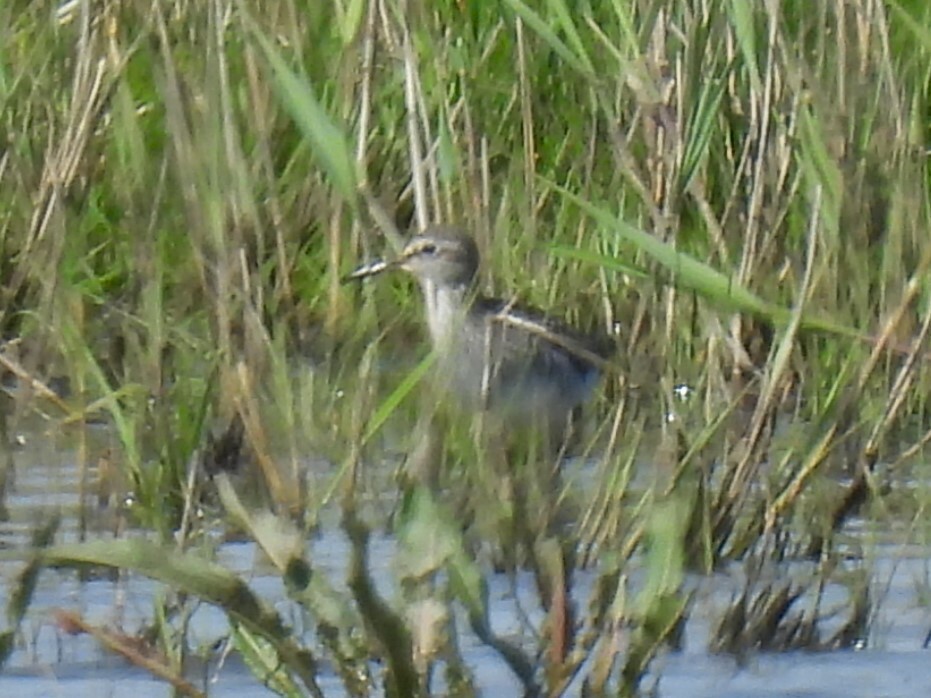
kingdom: Animalia
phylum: Chordata
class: Aves
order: Charadriiformes
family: Scolopacidae
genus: Tringa
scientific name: Tringa glareola
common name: Wood sandpiper
